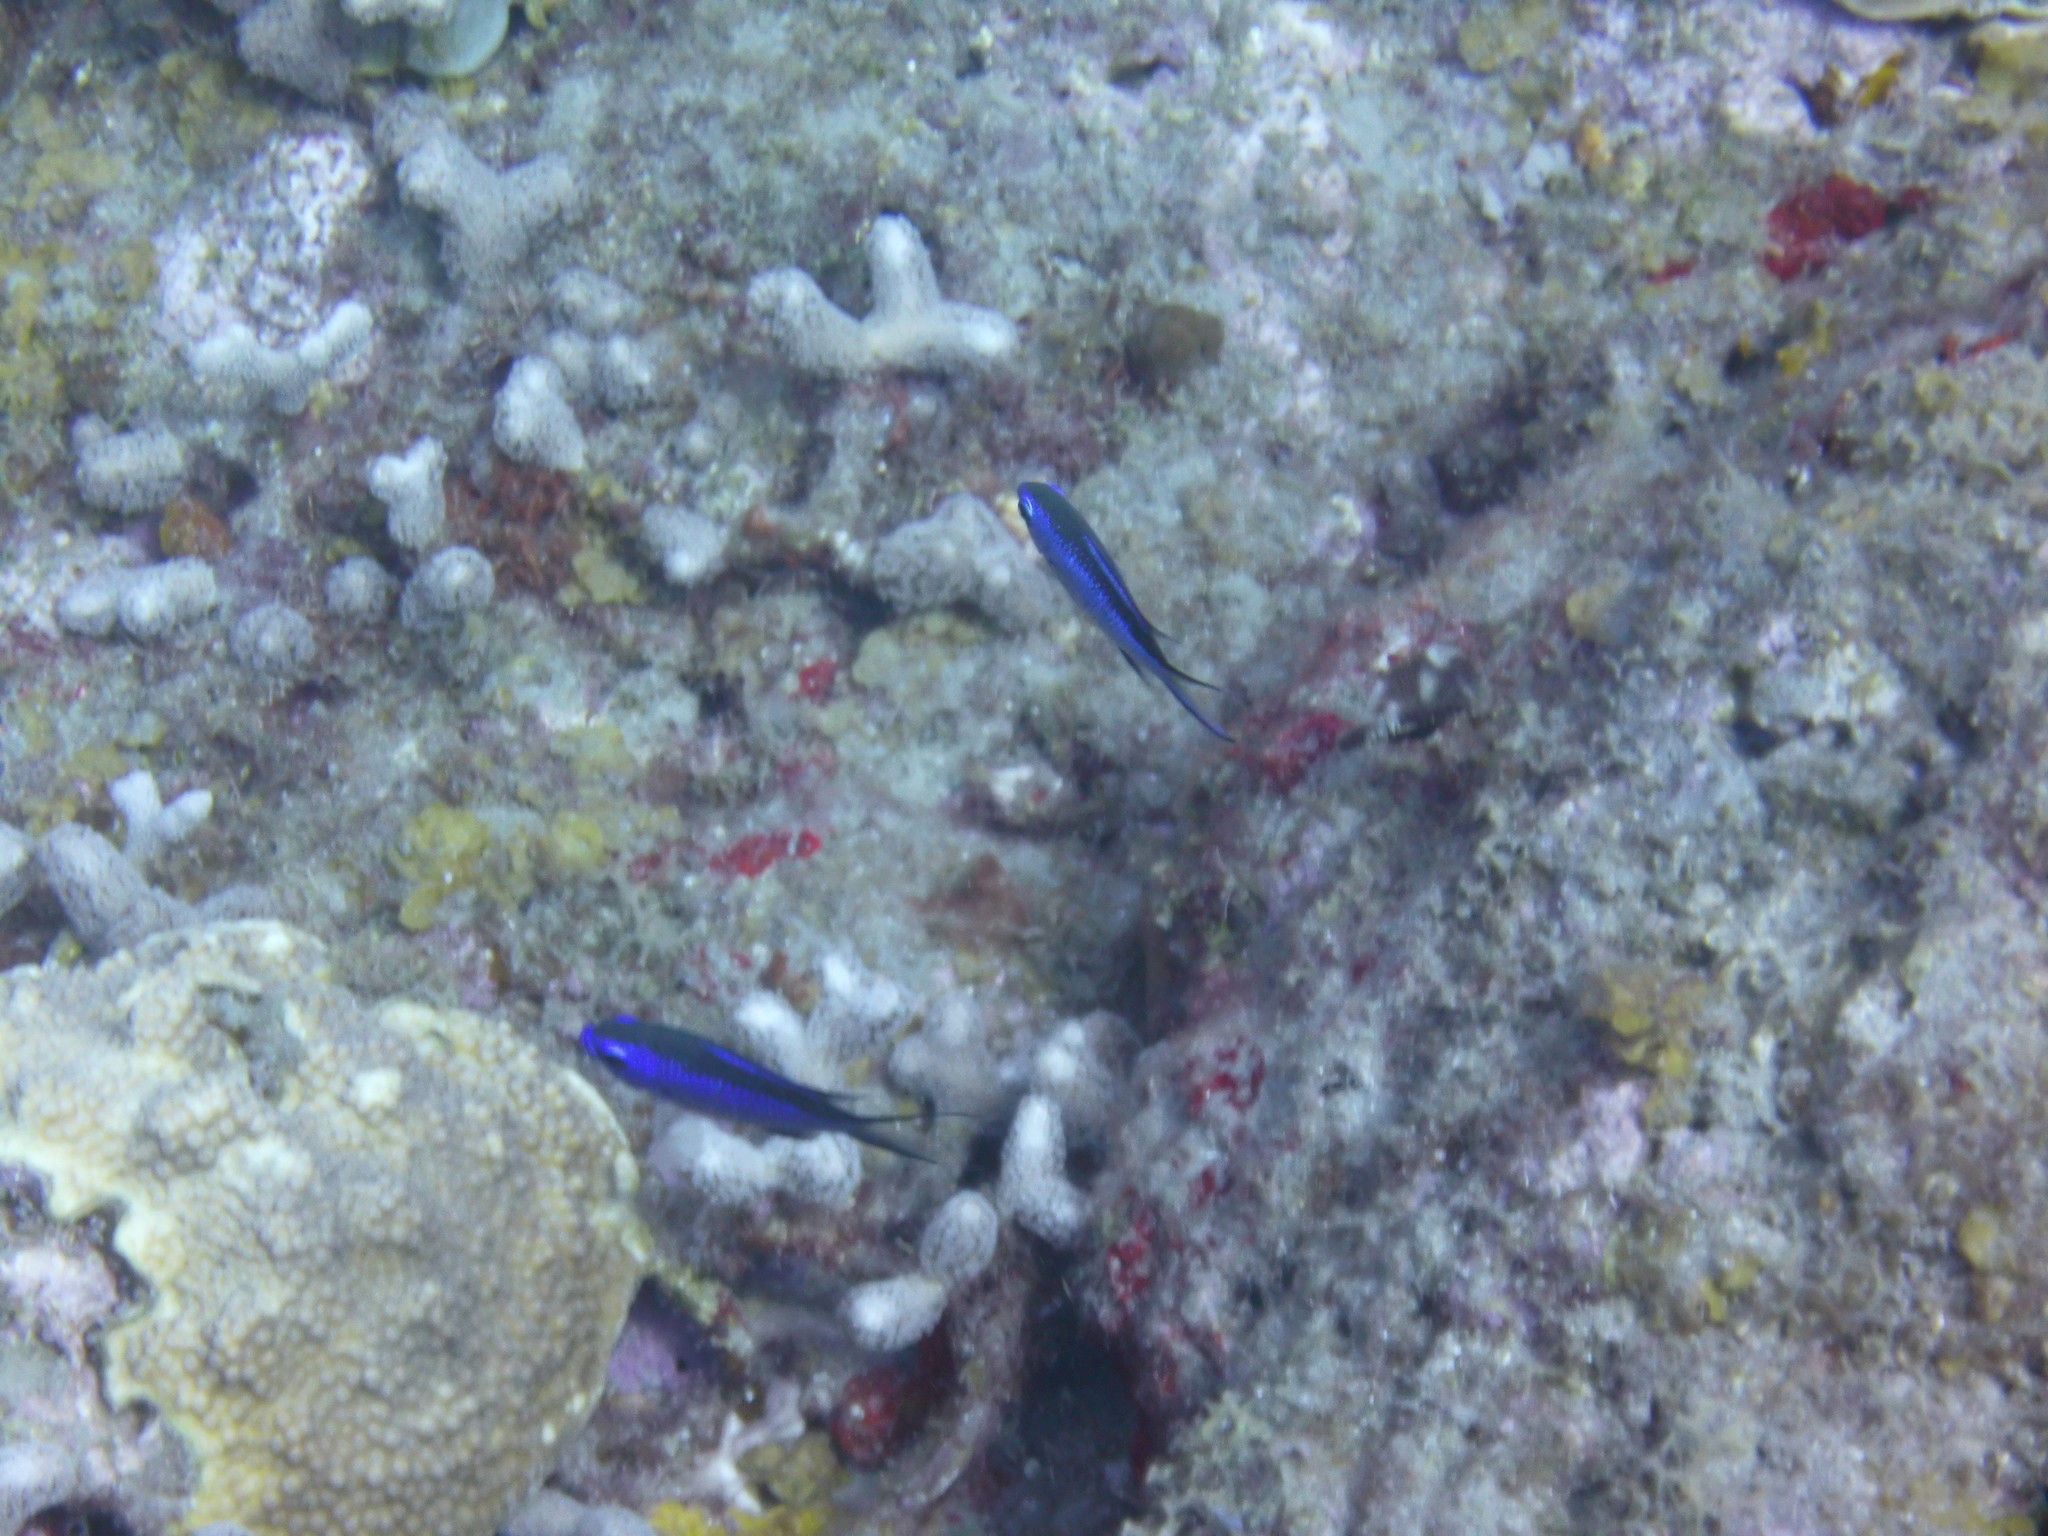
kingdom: Animalia
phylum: Chordata
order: Perciformes
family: Pomacentridae
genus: Chromis
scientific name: Chromis cyanea
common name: Blue chromis
